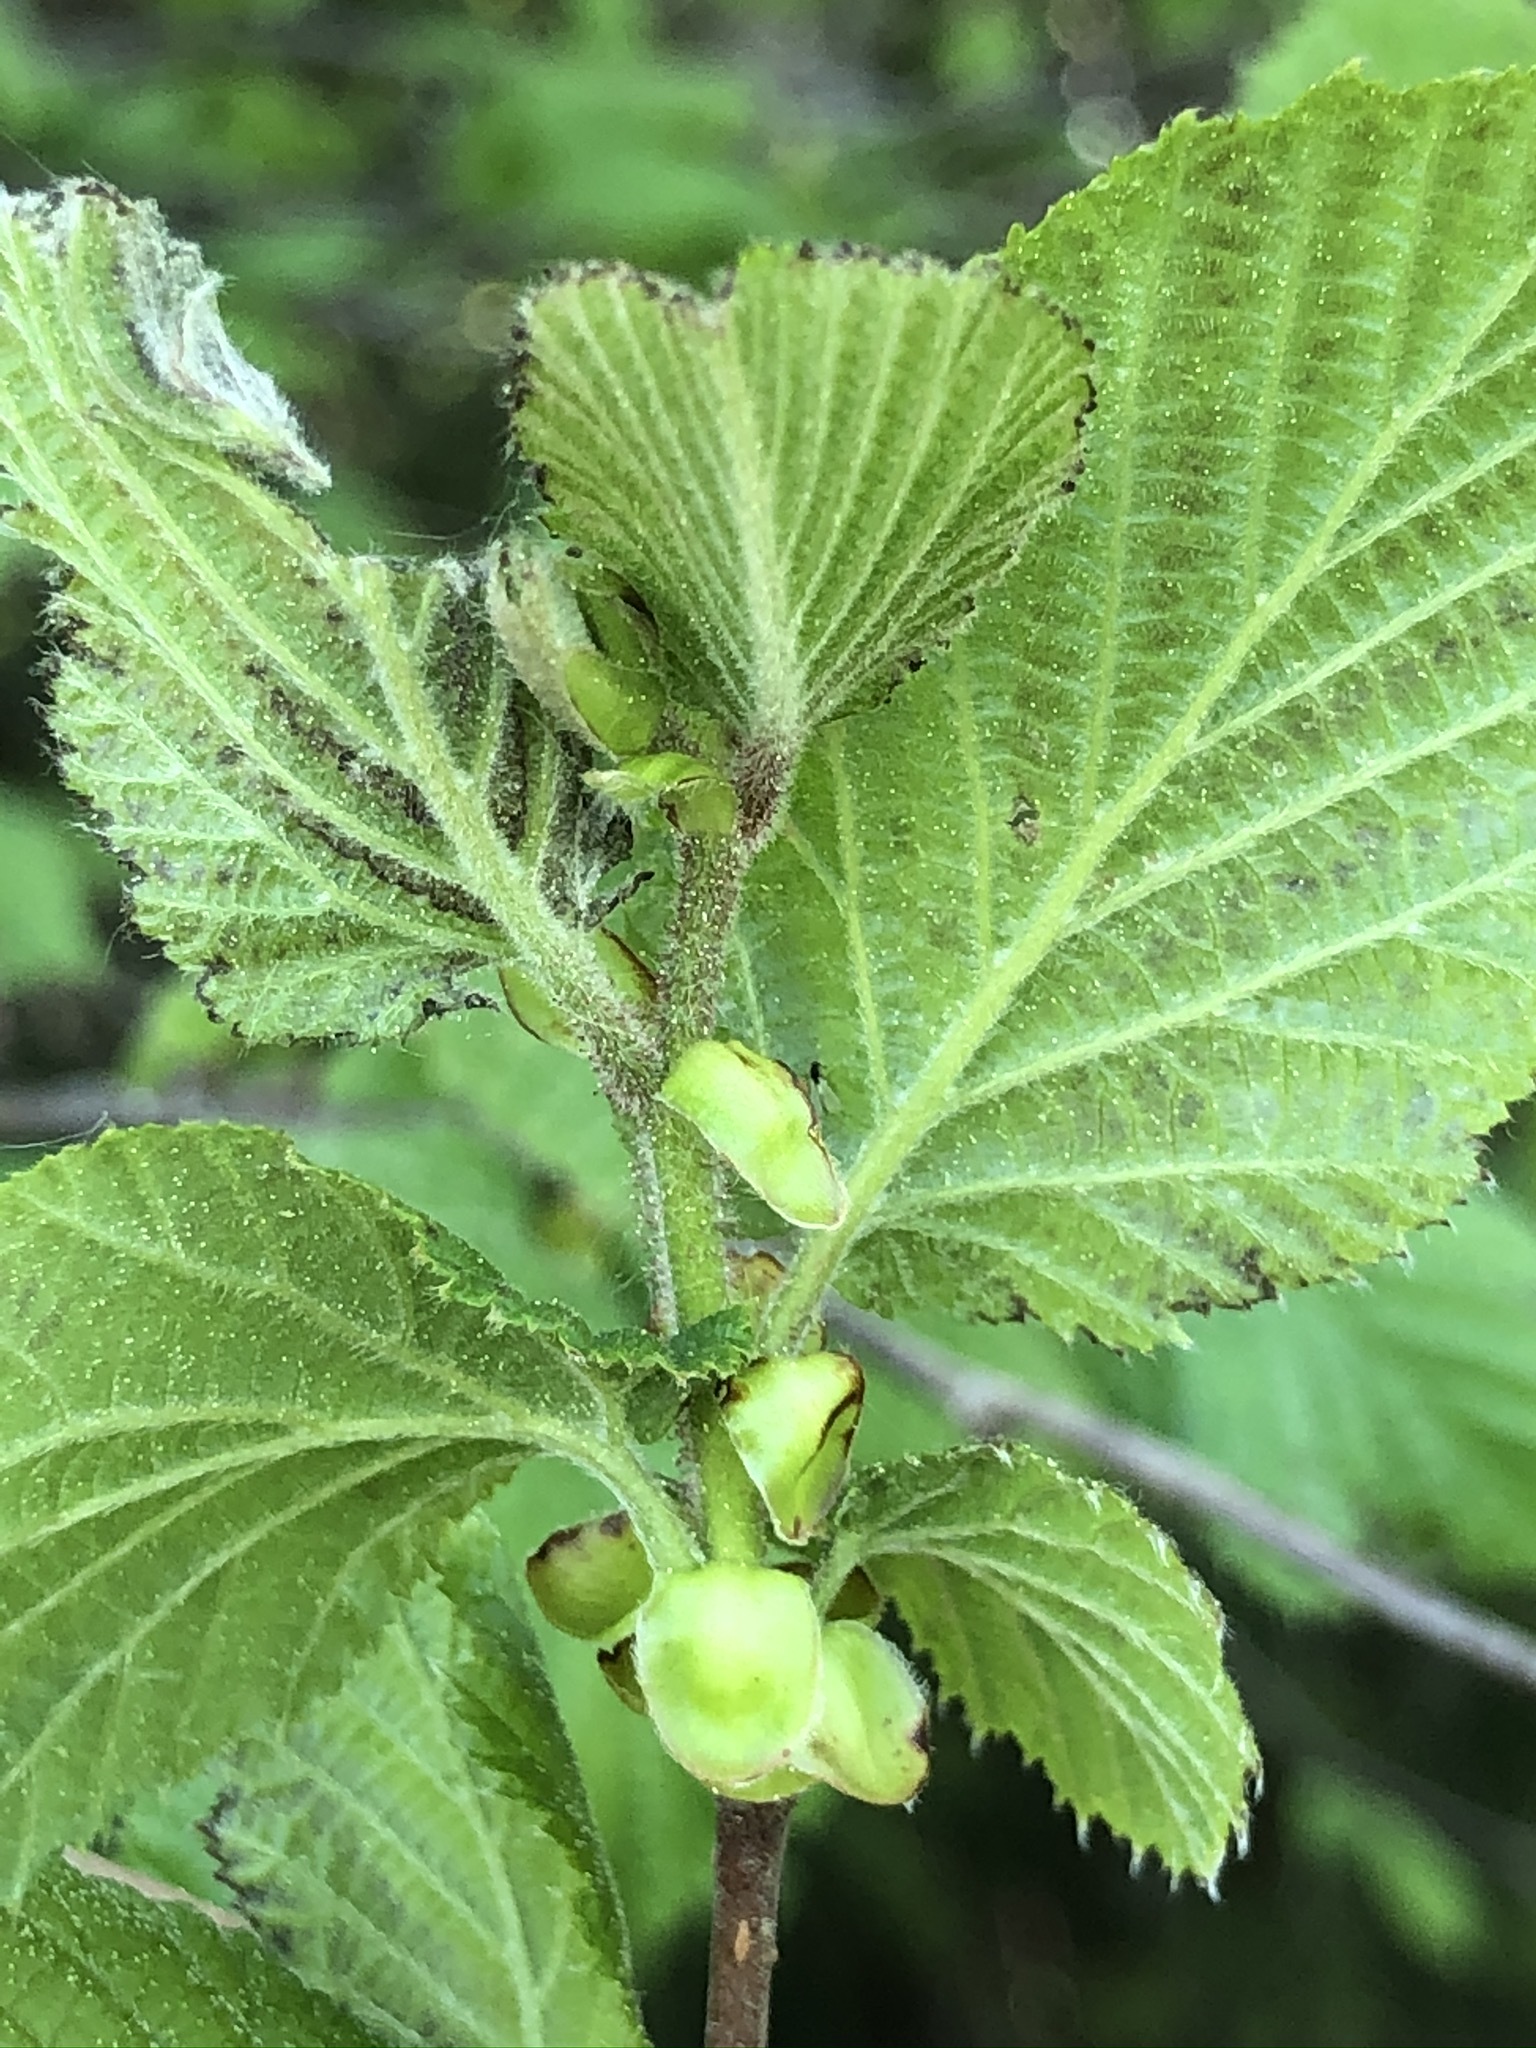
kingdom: Plantae
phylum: Tracheophyta
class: Magnoliopsida
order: Fagales
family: Betulaceae
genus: Corylus
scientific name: Corylus avellana
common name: European hazel
